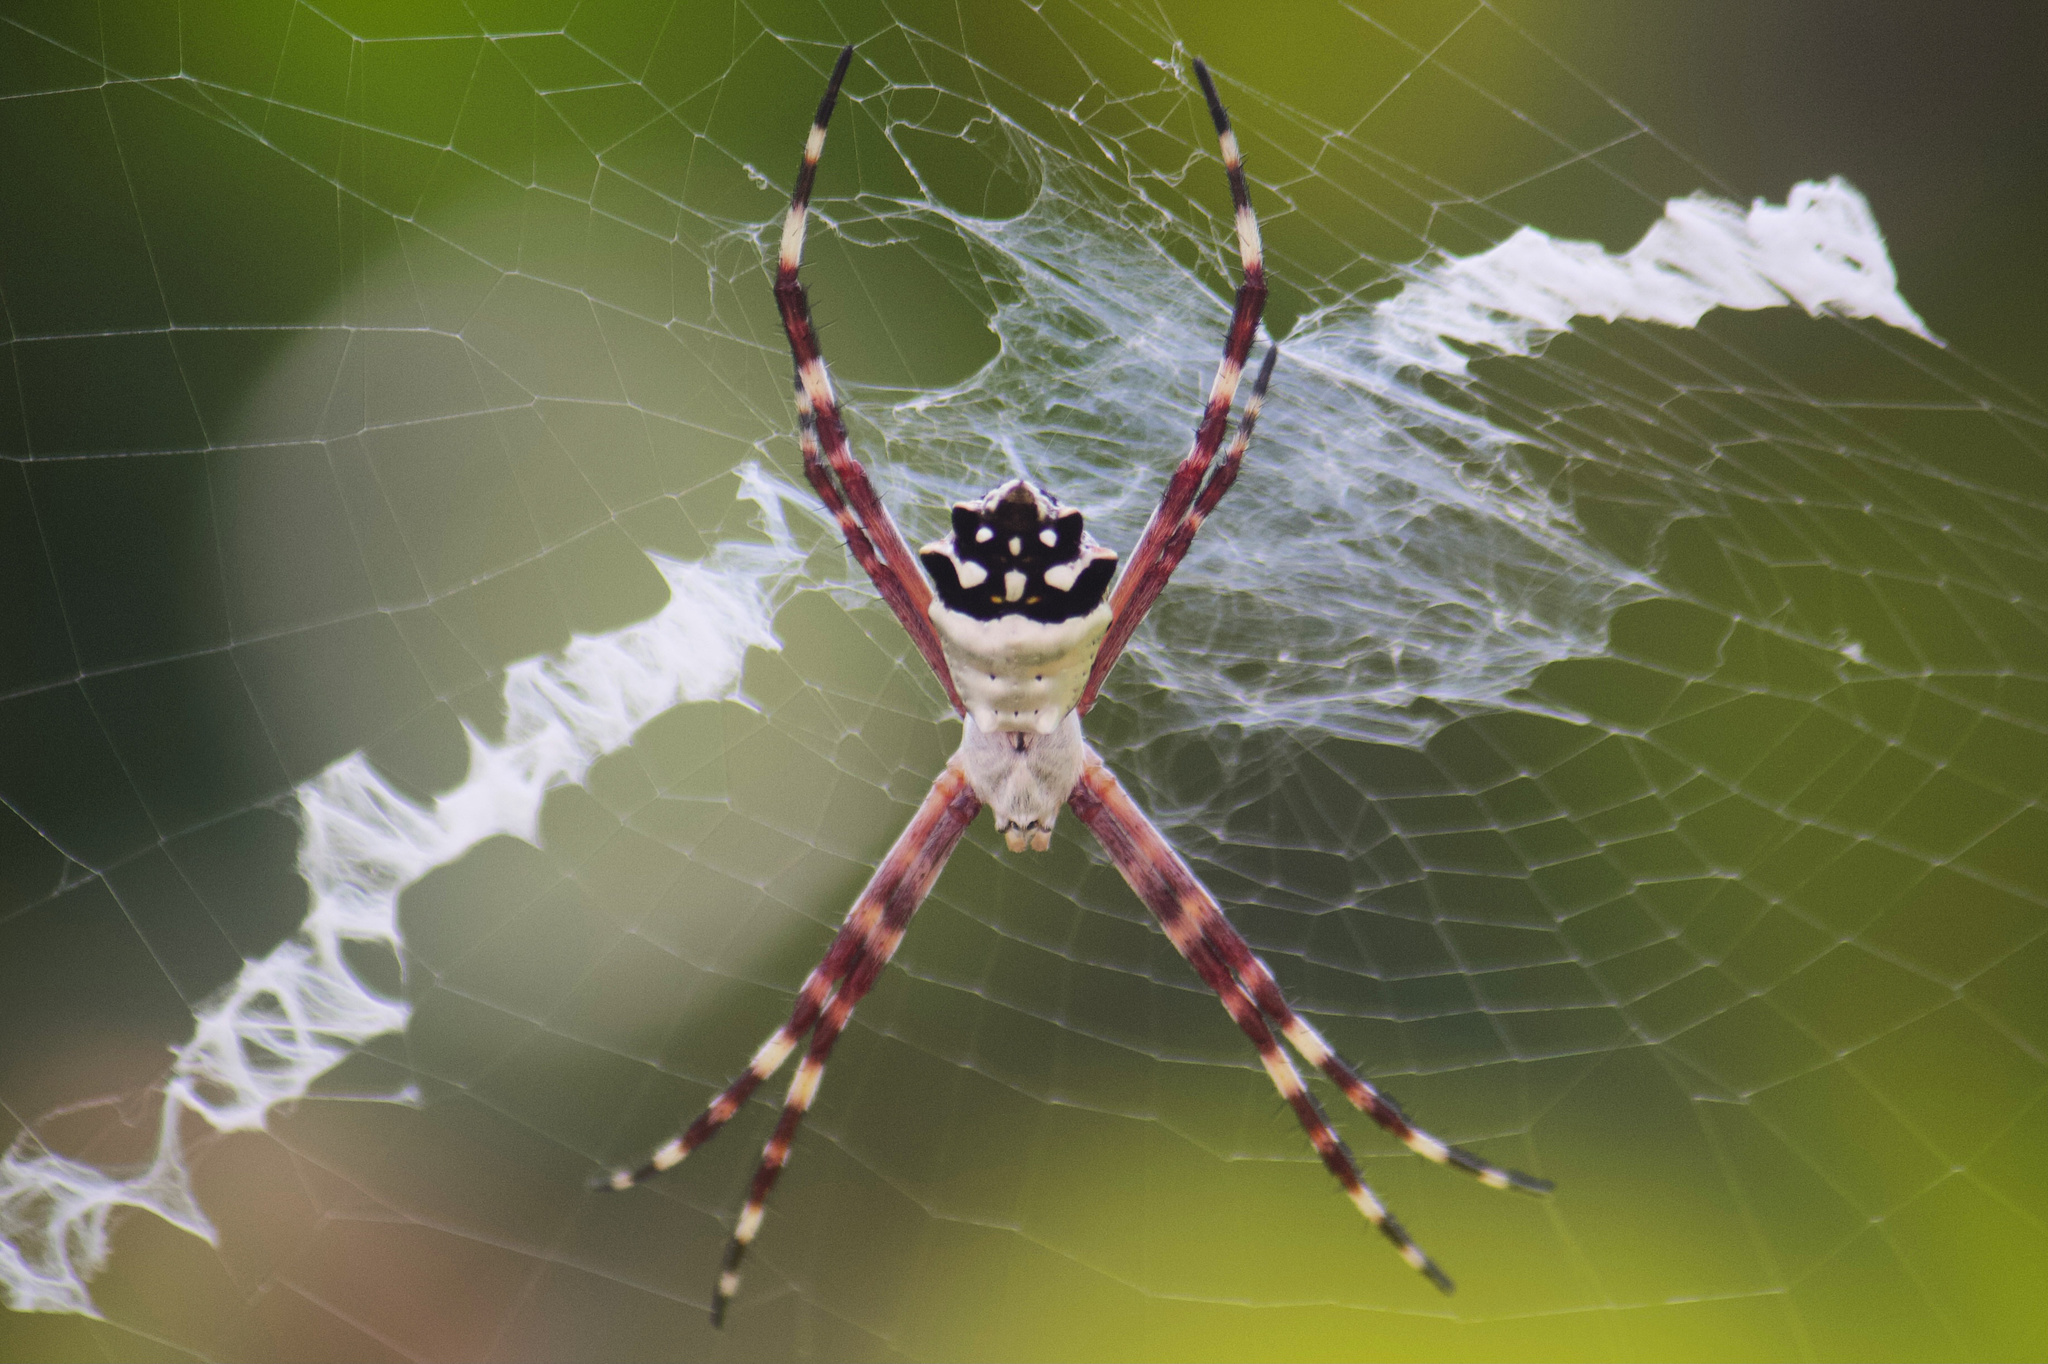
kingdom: Animalia
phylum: Arthropoda
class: Arachnida
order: Araneae
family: Araneidae
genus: Argiope
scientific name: Argiope argentata
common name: Orb weavers
